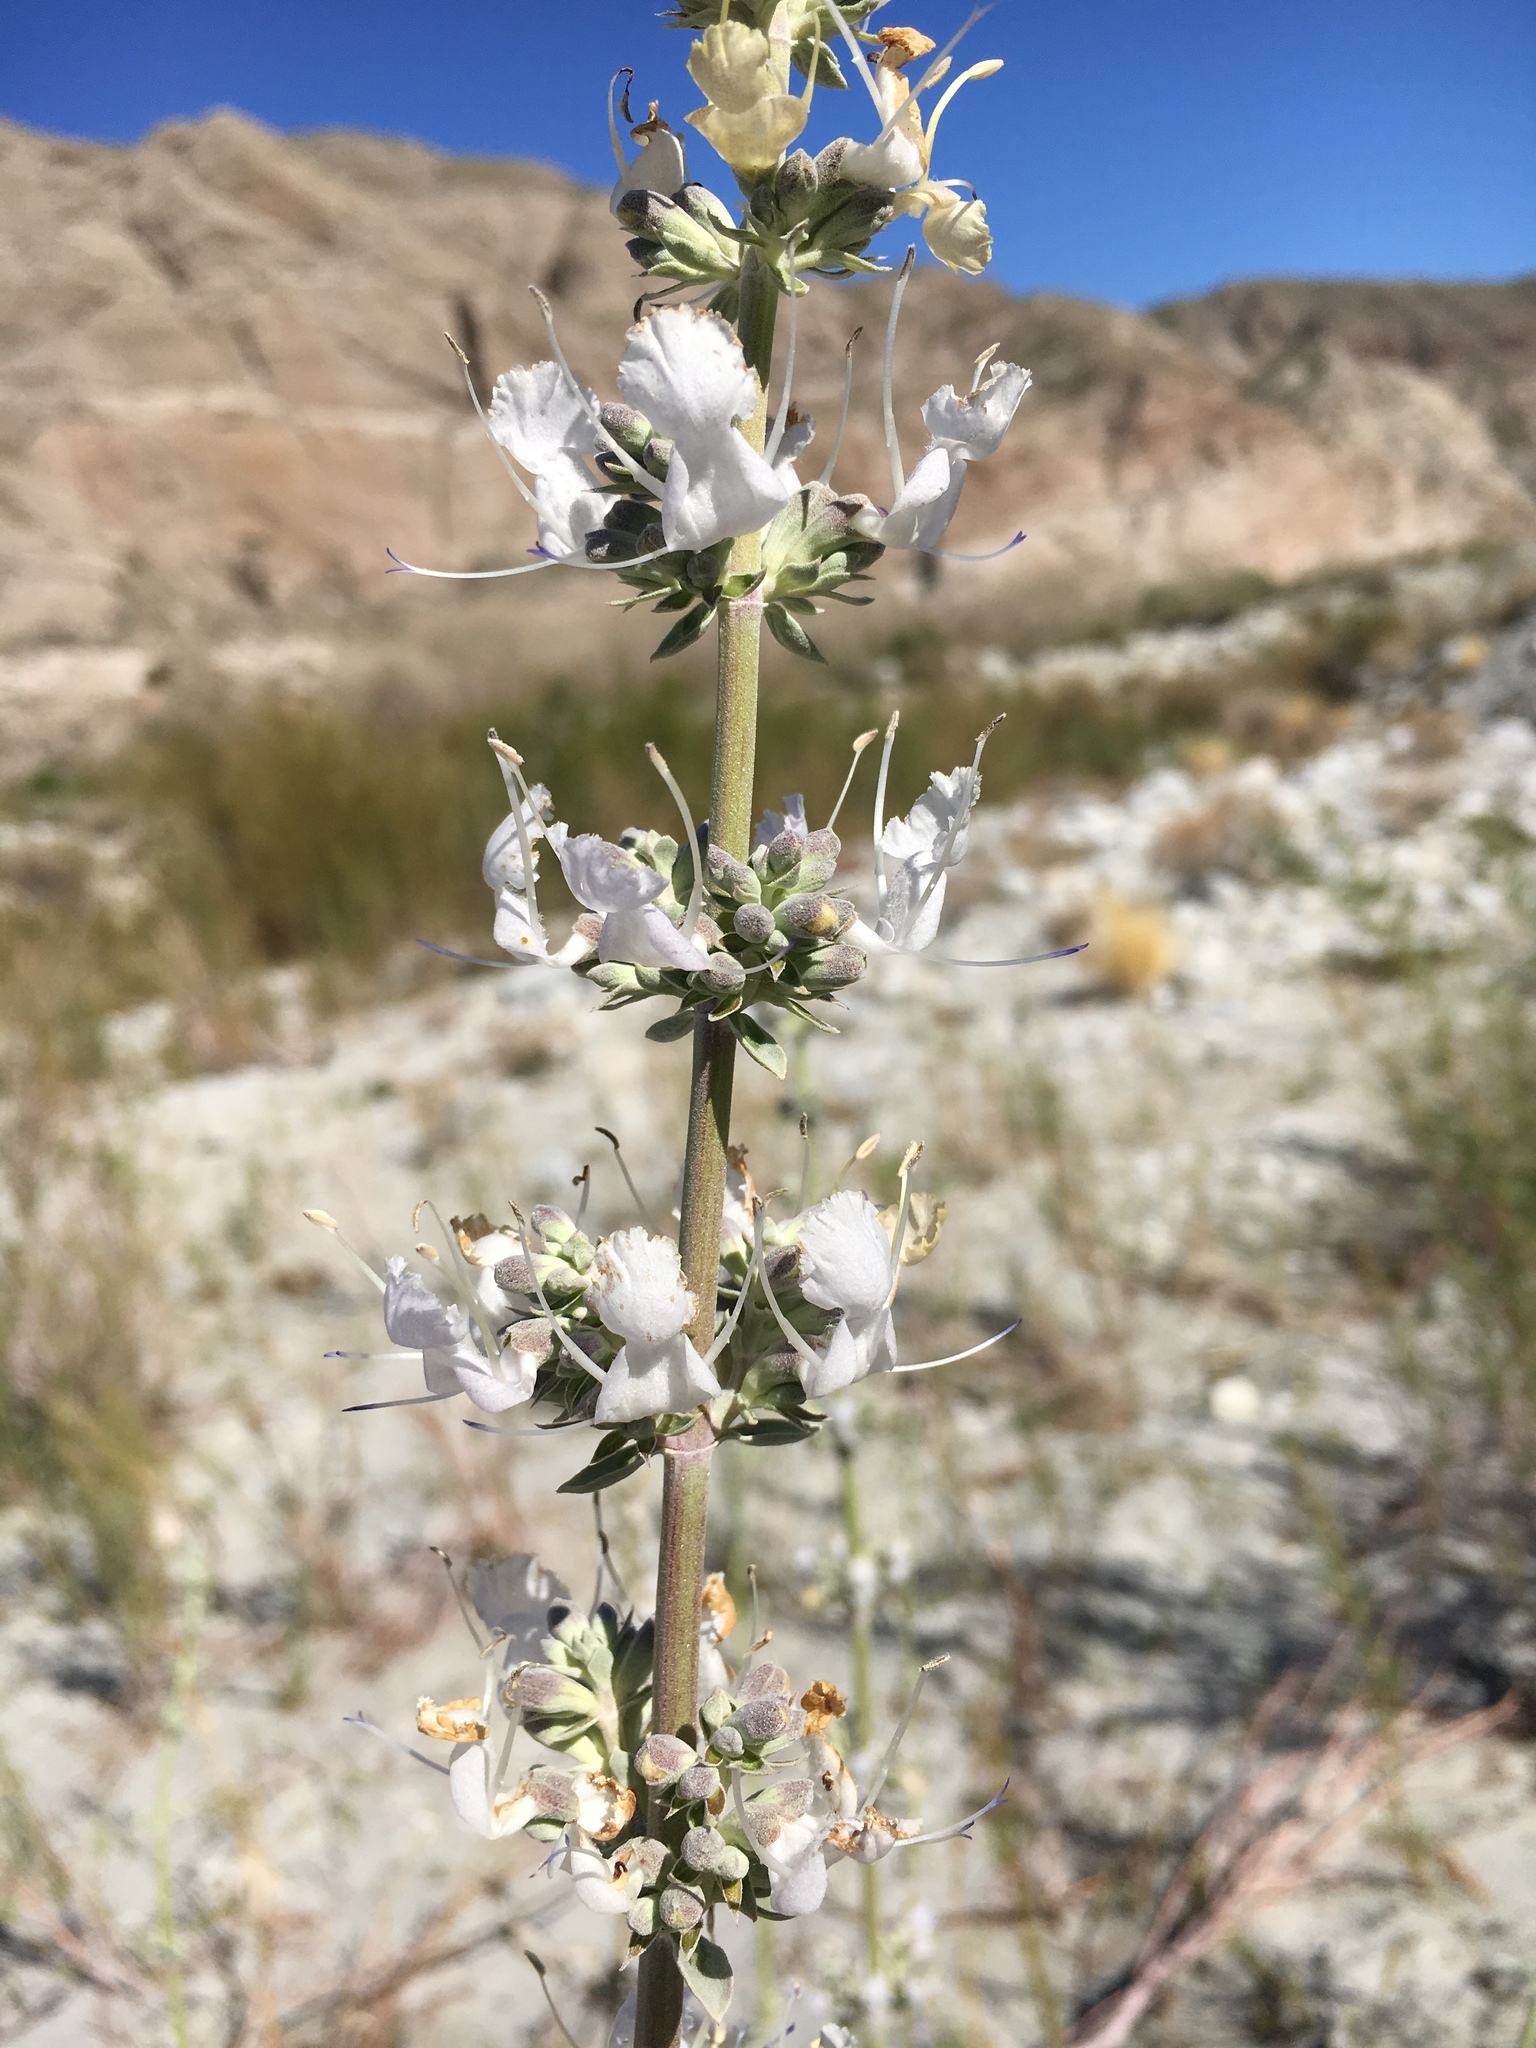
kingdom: Plantae
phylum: Tracheophyta
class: Magnoliopsida
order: Lamiales
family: Lamiaceae
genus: Salvia
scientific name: Salvia vaseyi
